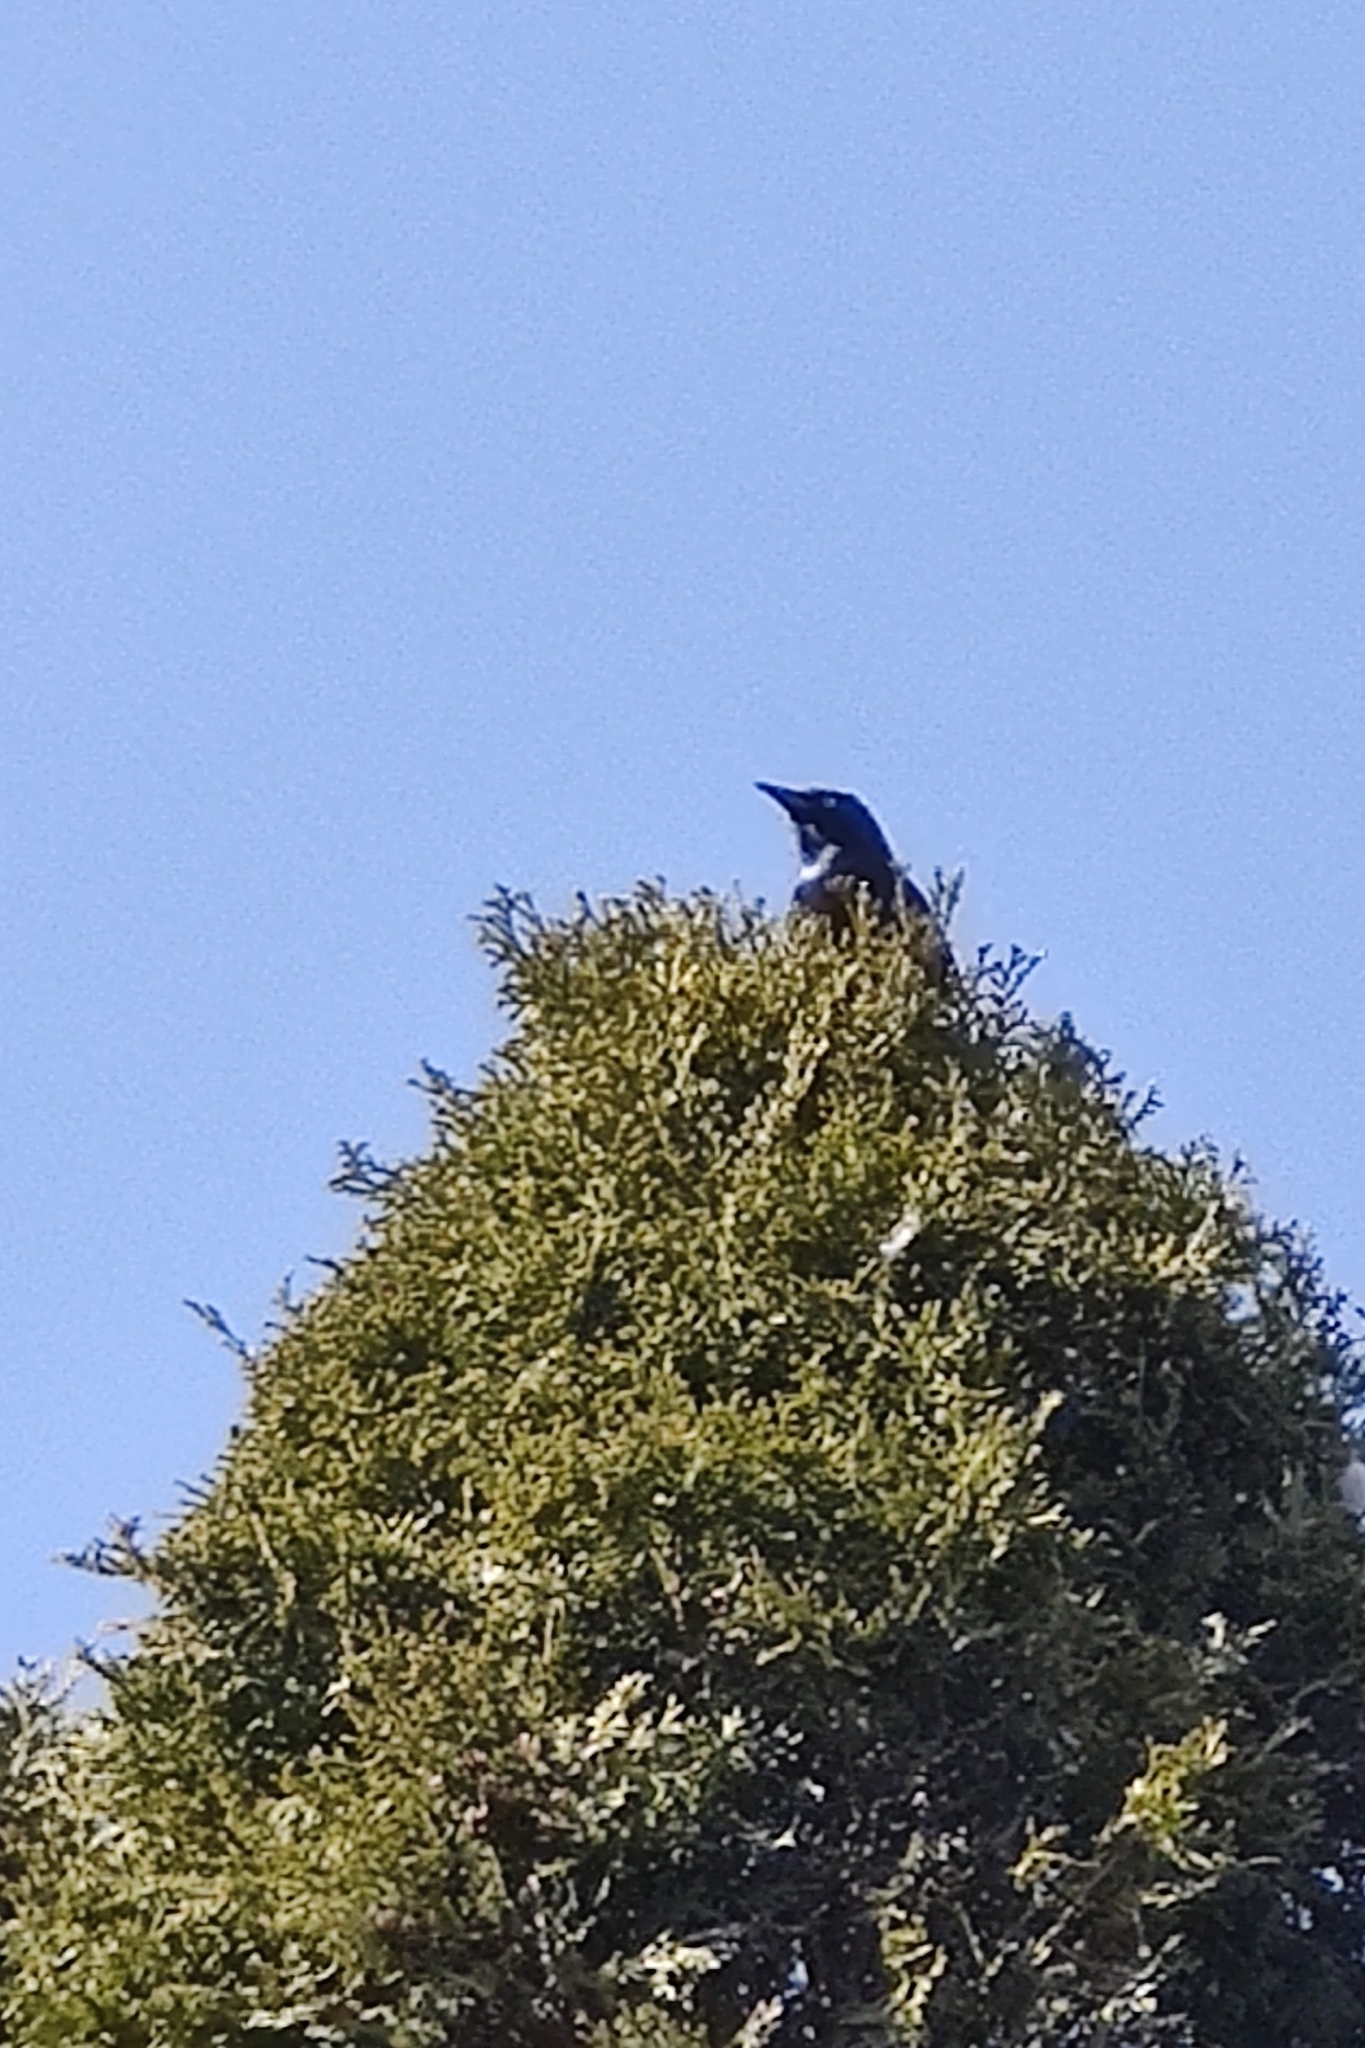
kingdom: Animalia
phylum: Chordata
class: Aves
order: Passeriformes
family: Icteridae
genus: Quiscalus
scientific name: Quiscalus quiscula
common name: Common grackle
